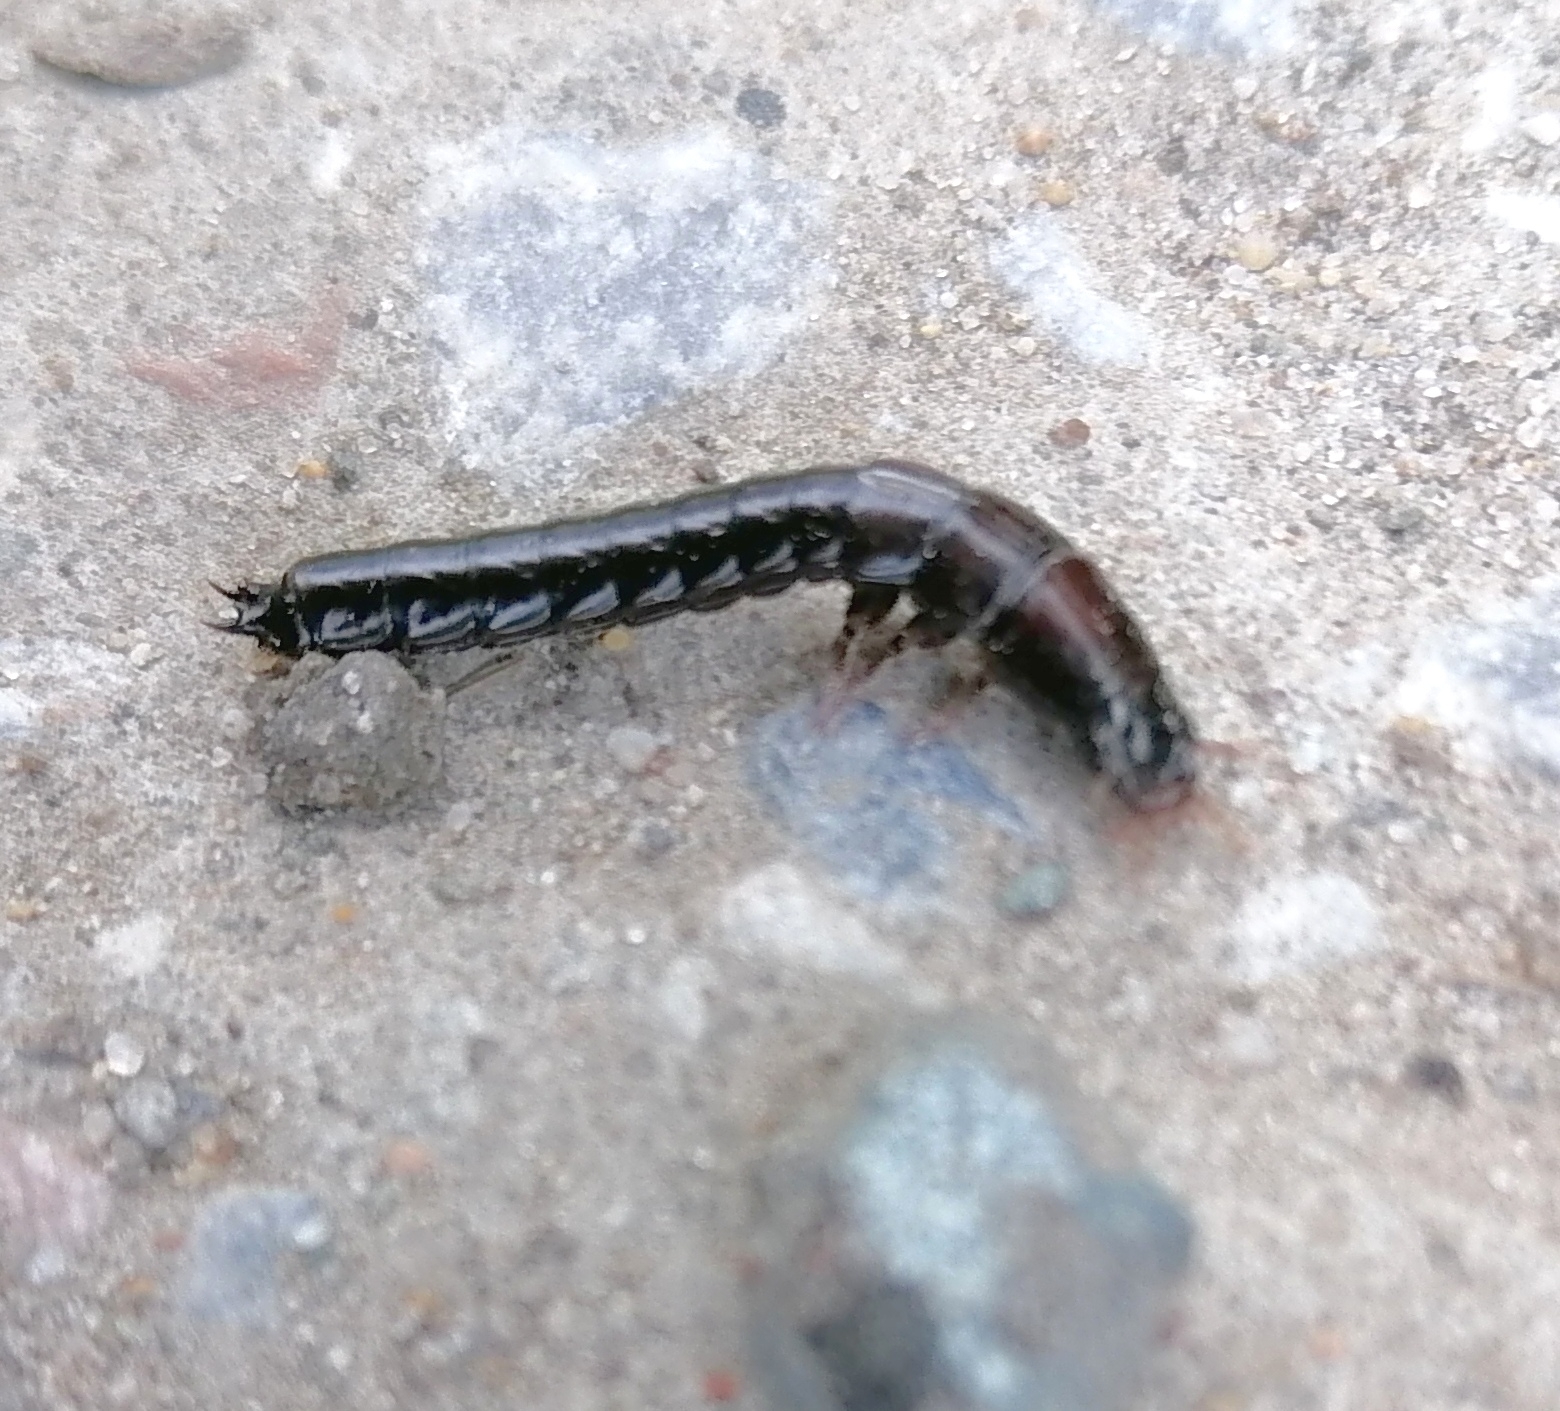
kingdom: Animalia
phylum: Arthropoda
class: Insecta
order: Coleoptera
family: Carabidae
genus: Carabus
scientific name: Carabus
